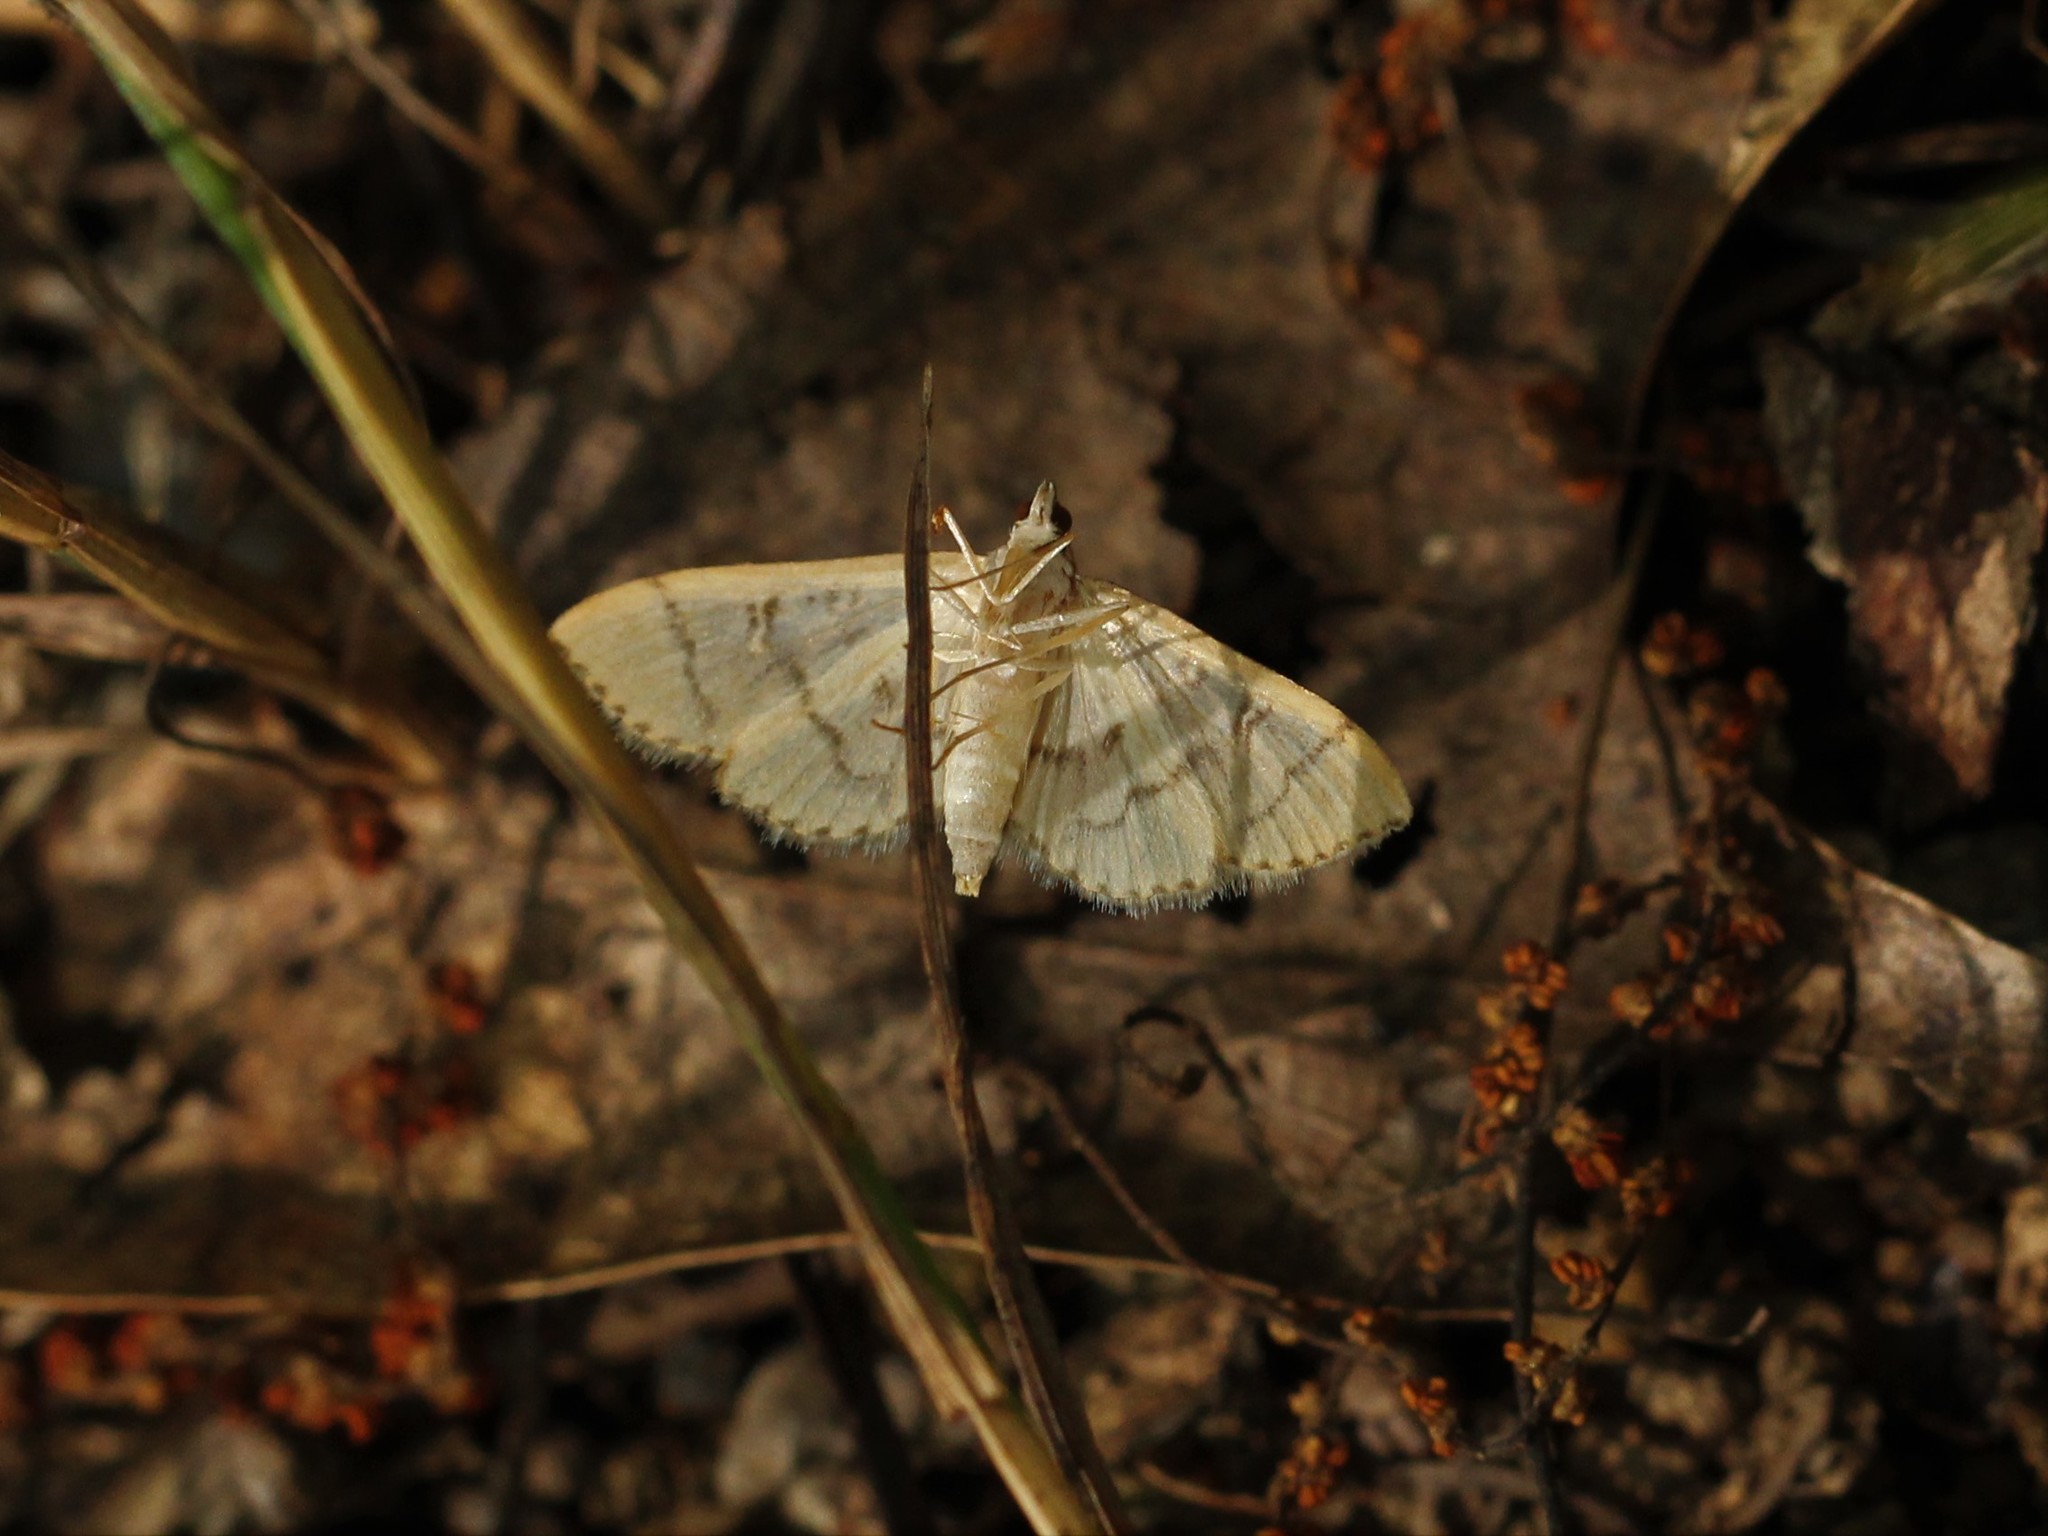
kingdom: Animalia
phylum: Arthropoda
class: Insecta
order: Lepidoptera
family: Crambidae
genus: Lamprosema
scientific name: Lamprosema Blepharomastix ranalis
